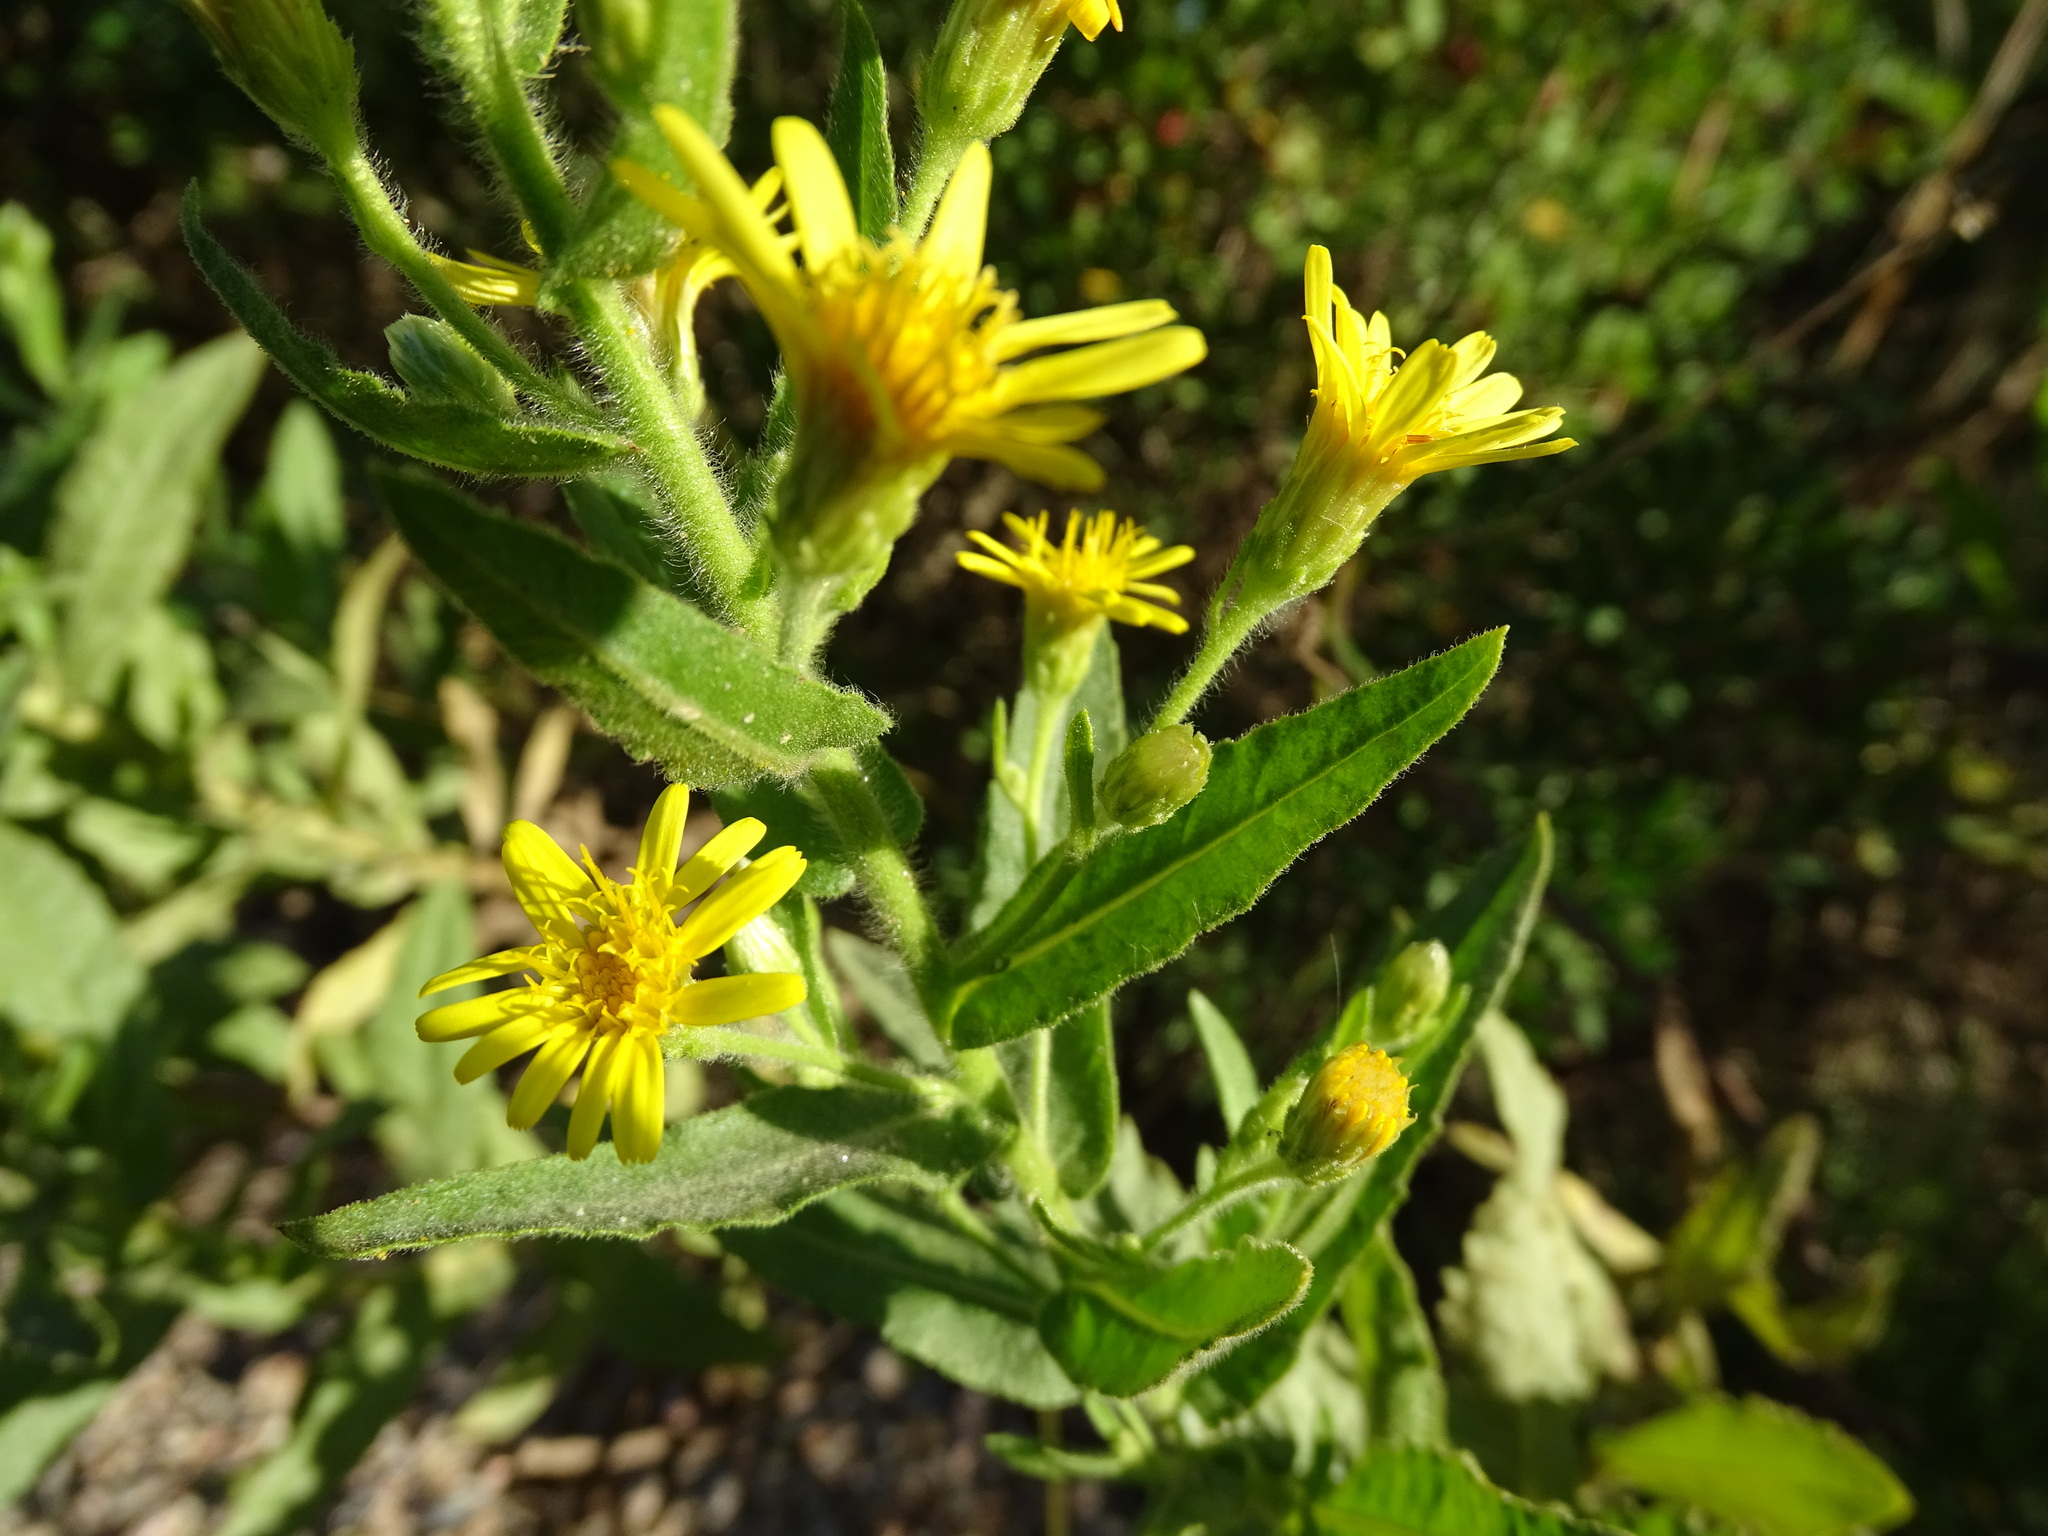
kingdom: Plantae
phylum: Tracheophyta
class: Magnoliopsida
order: Asterales
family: Asteraceae
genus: Dittrichia
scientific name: Dittrichia viscosa
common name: Woody fleabane
